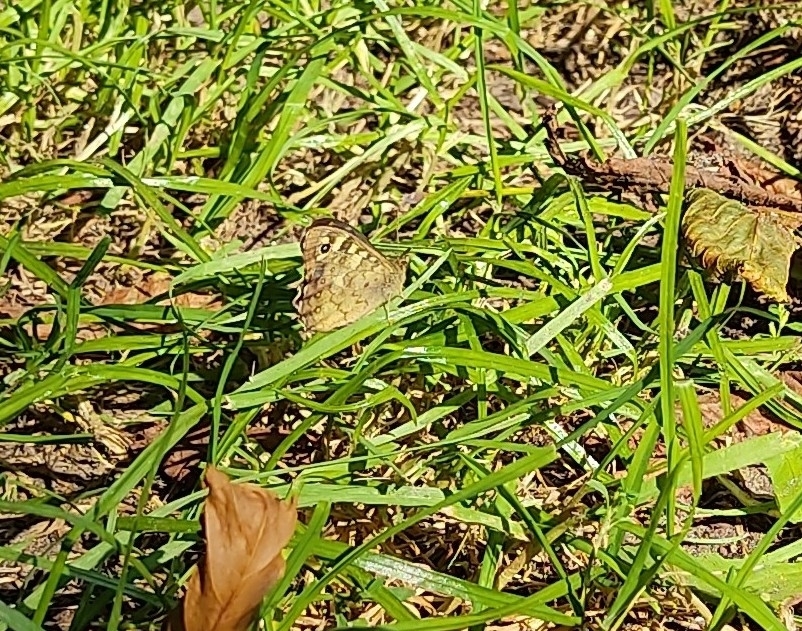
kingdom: Animalia
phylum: Arthropoda
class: Insecta
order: Lepidoptera
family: Nymphalidae
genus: Pararge
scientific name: Pararge aegeria
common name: Speckled wood
